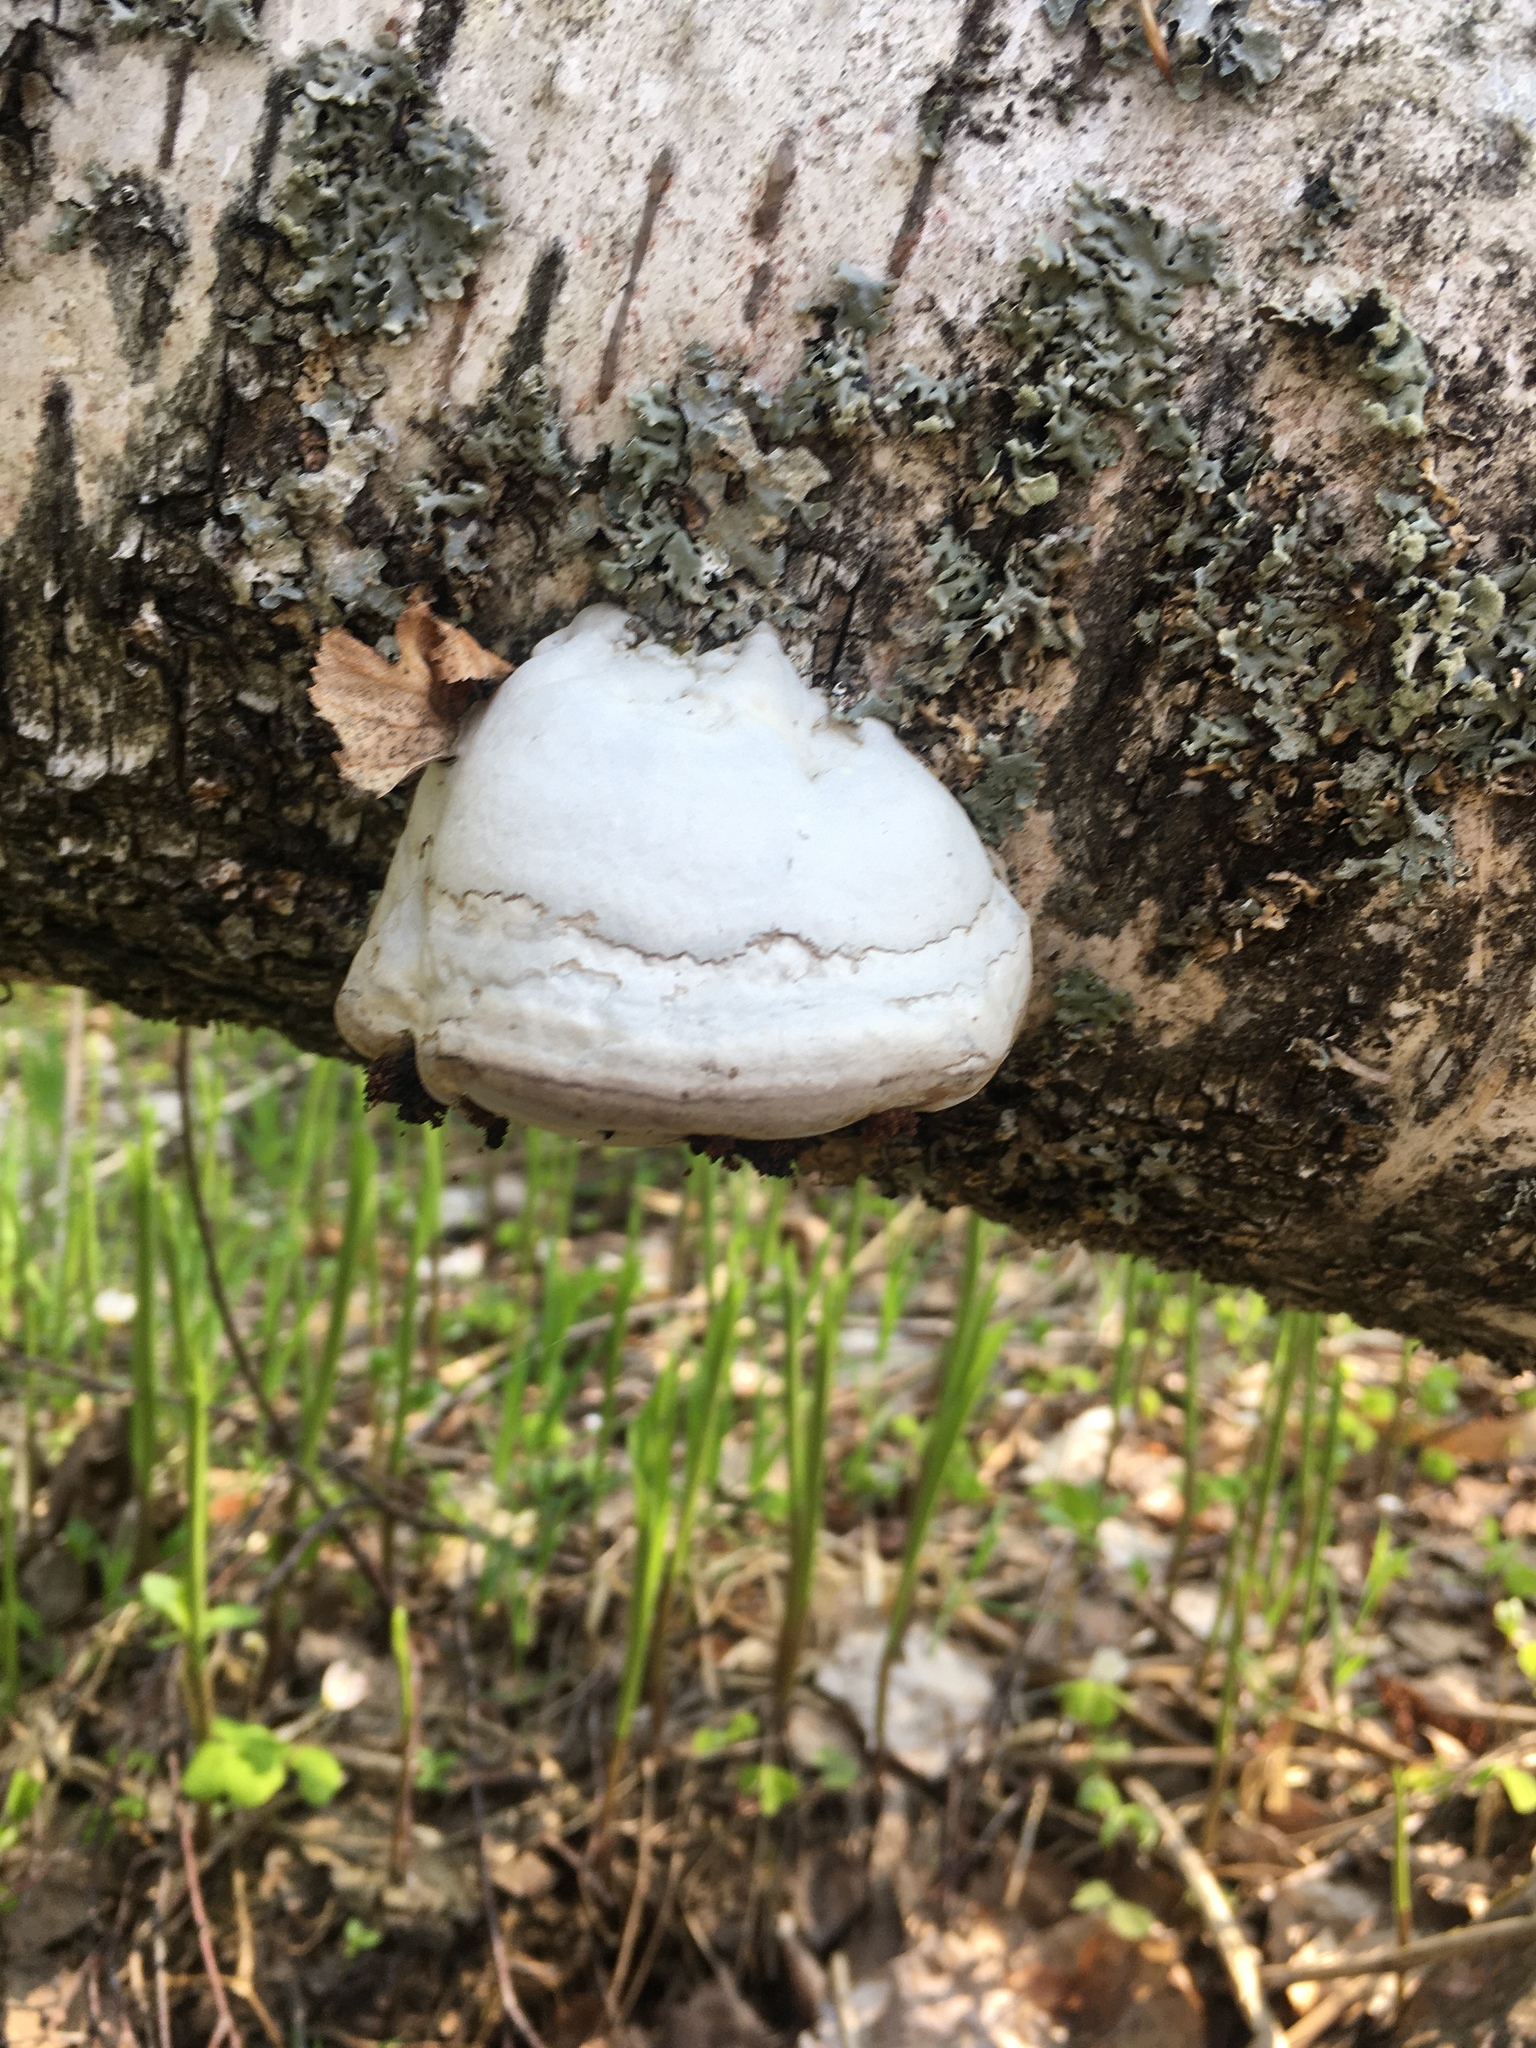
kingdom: Fungi
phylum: Basidiomycota
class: Agaricomycetes
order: Polyporales
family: Polyporaceae
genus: Fomes
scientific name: Fomes fomentarius
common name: Hoof fungus
